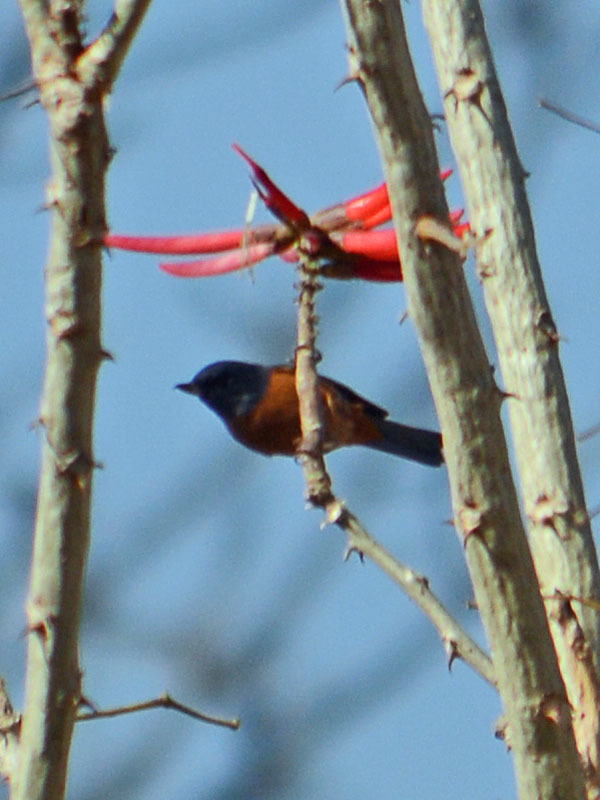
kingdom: Animalia
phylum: Chordata
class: Aves
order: Passeriformes
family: Thraupidae
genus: Diglossa
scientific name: Diglossa baritula
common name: Cinnamon-bellied flowerpiercer
